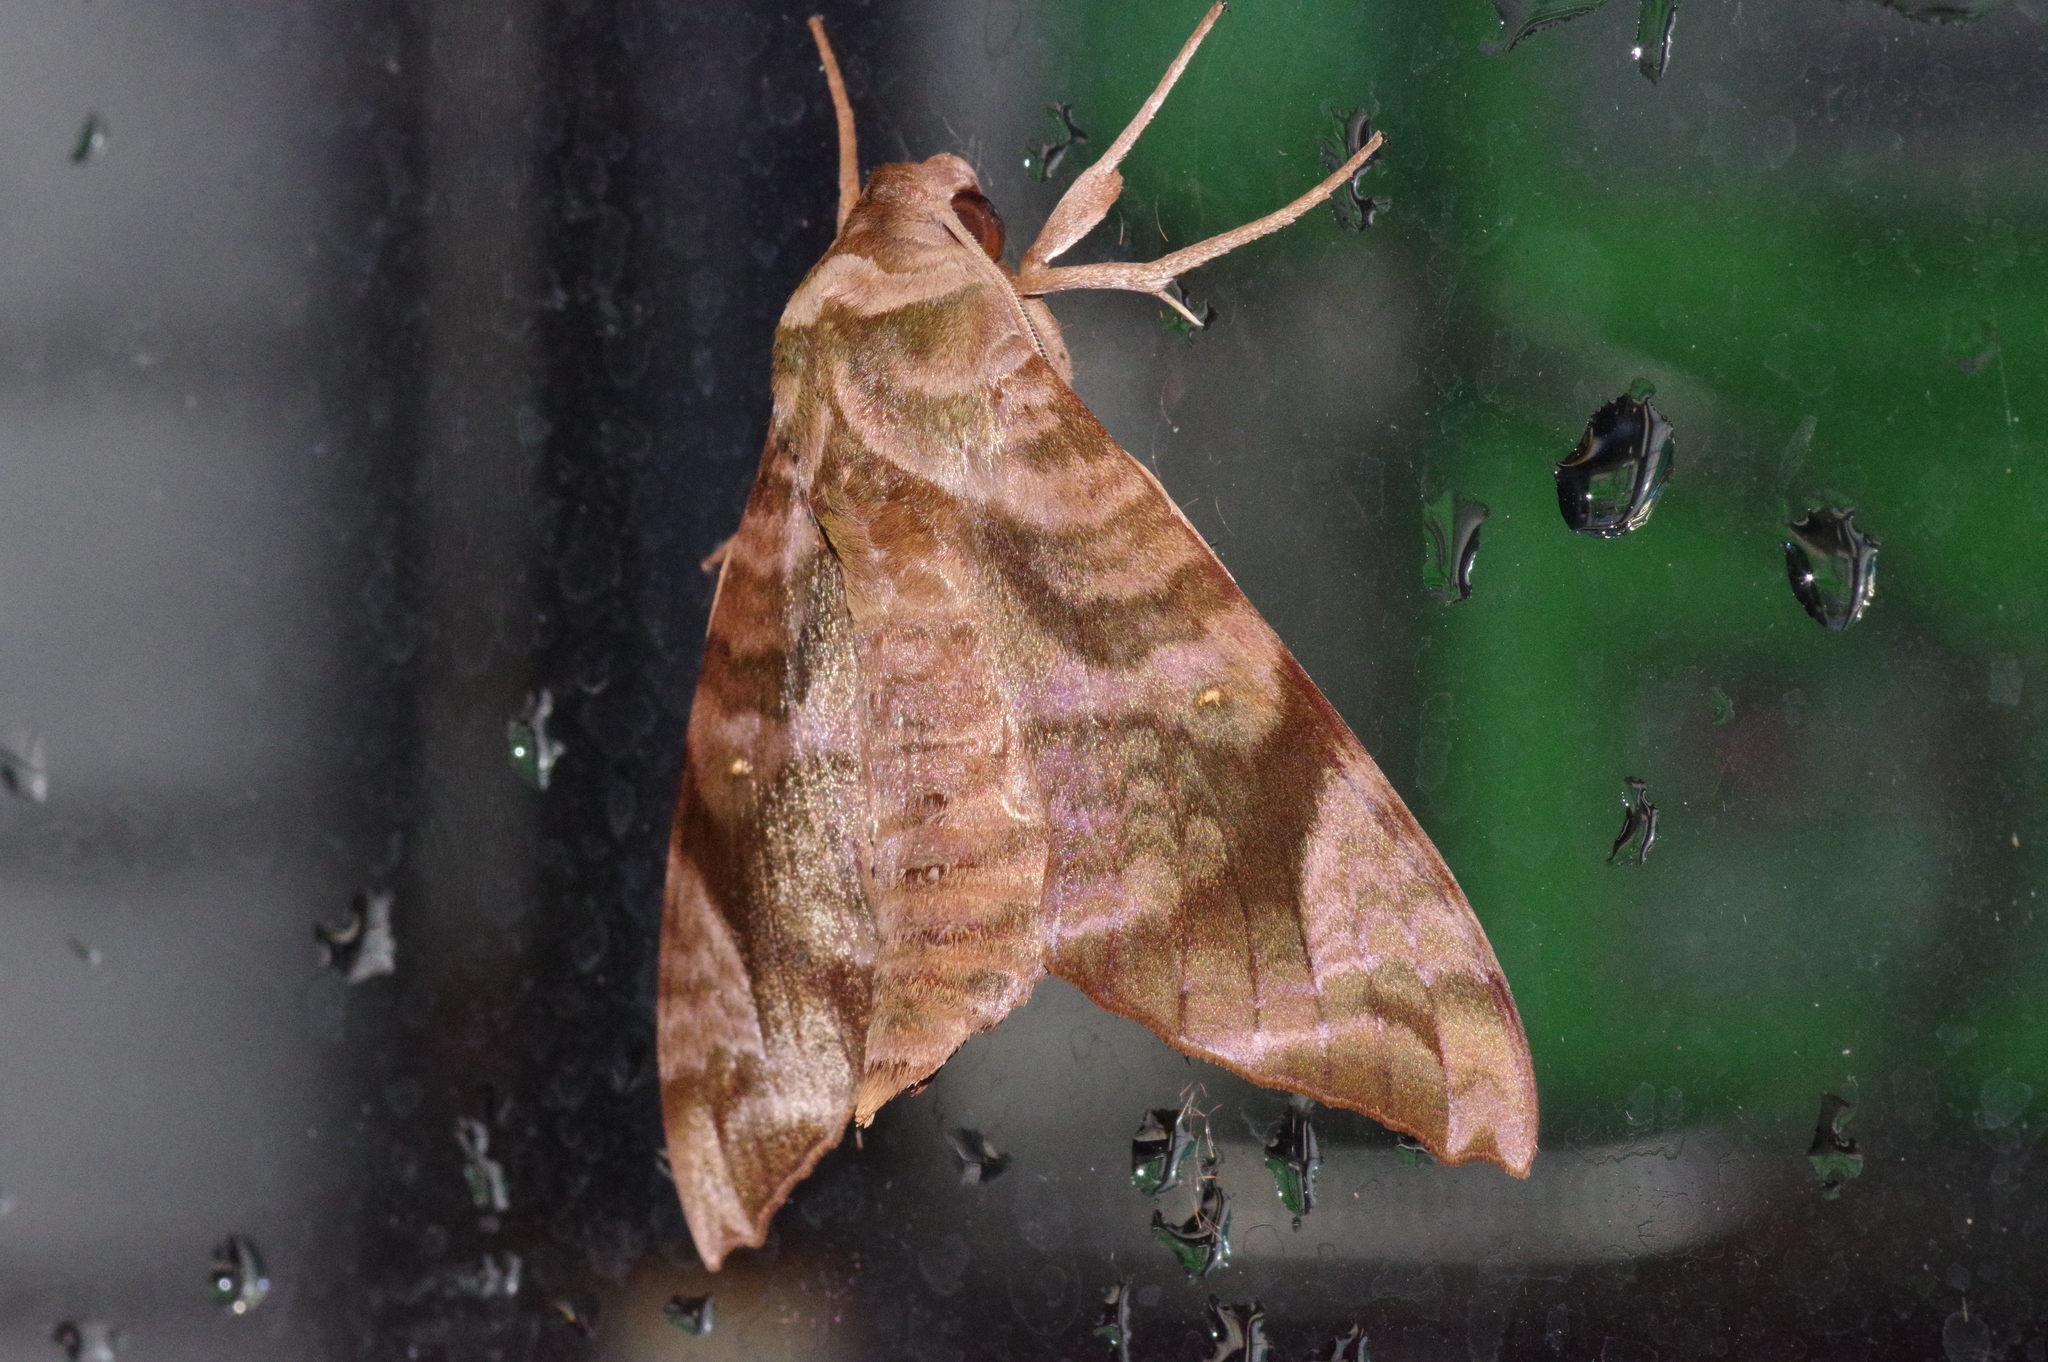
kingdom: Animalia
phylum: Arthropoda
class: Insecta
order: Lepidoptera
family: Sphingidae
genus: Acosmeryx
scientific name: Acosmeryx castanea
